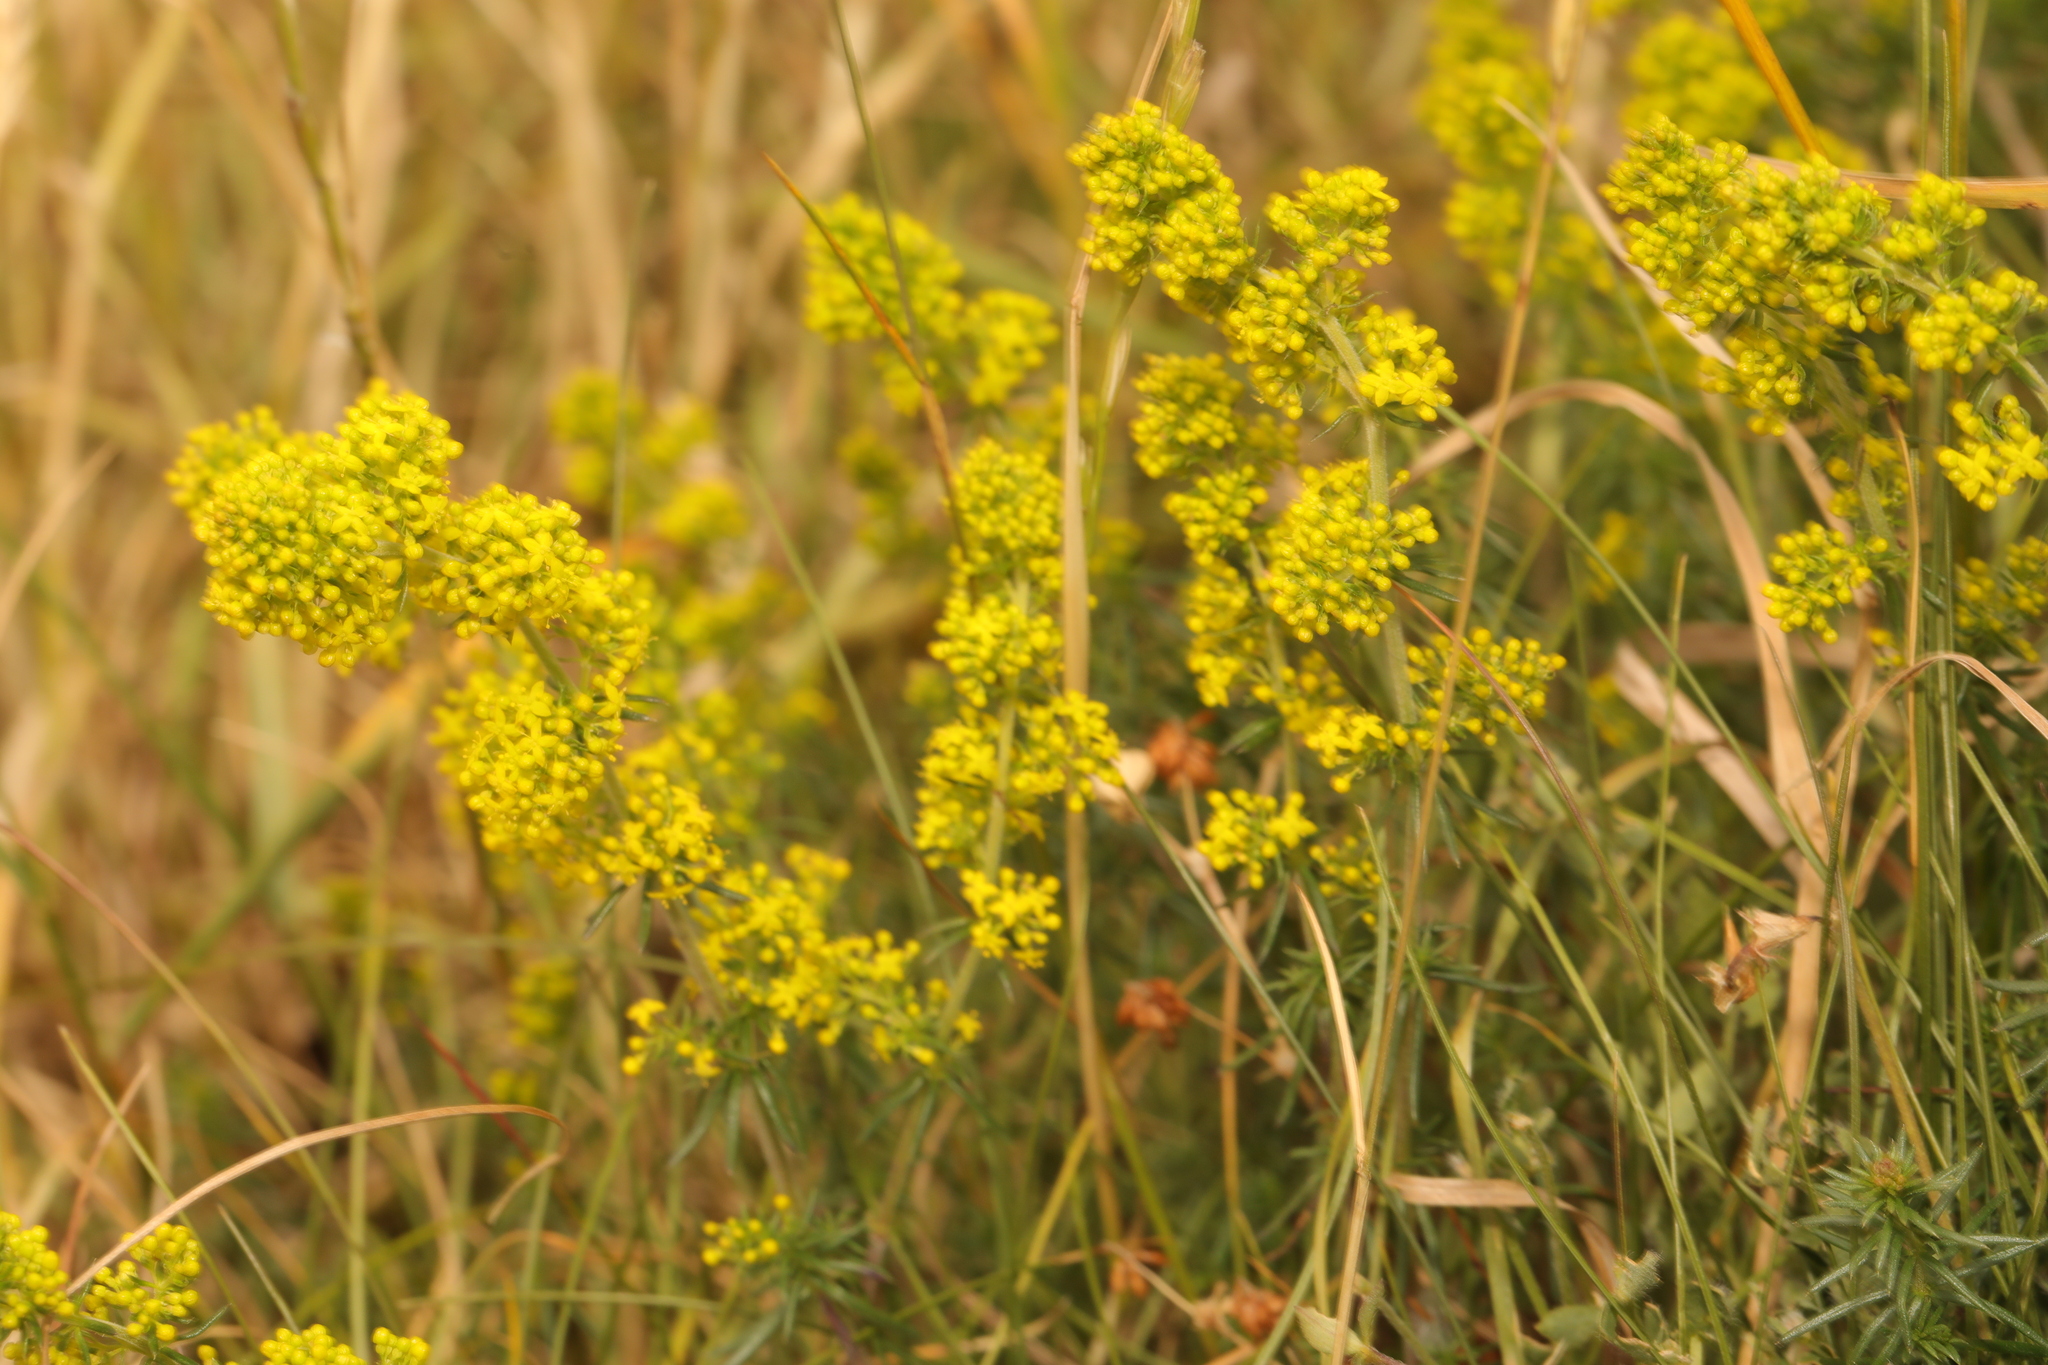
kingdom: Plantae
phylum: Tracheophyta
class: Magnoliopsida
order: Gentianales
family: Rubiaceae
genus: Galium
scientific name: Galium verum
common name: Lady's bedstraw
